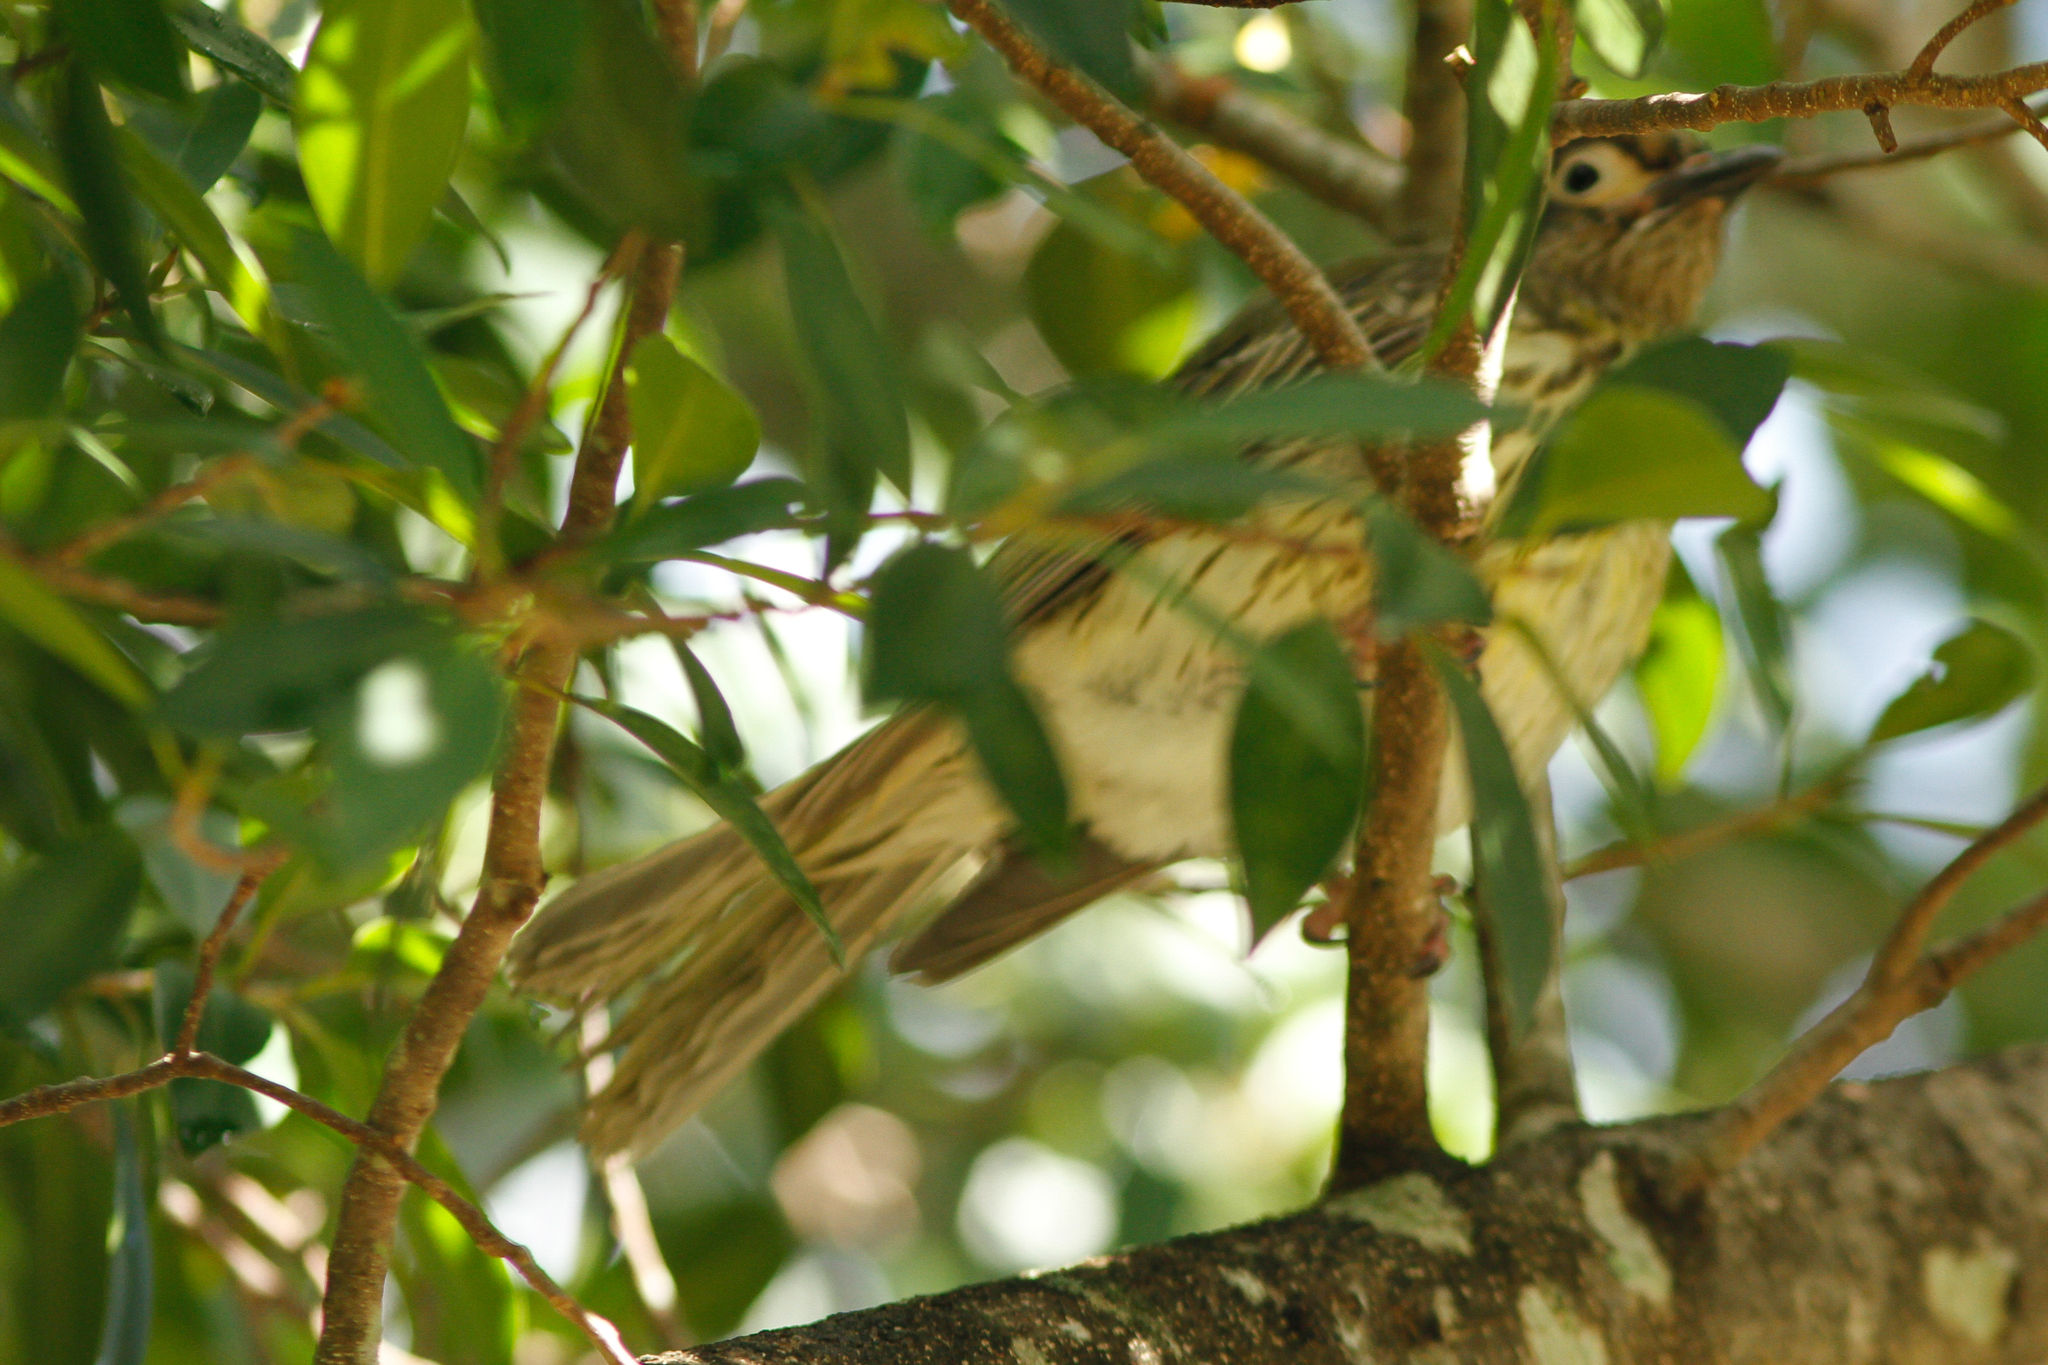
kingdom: Animalia
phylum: Chordata
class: Aves
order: Passeriformes
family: Oriolidae
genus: Sphecotheres
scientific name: Sphecotheres vieilloti
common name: Australasian figbird
